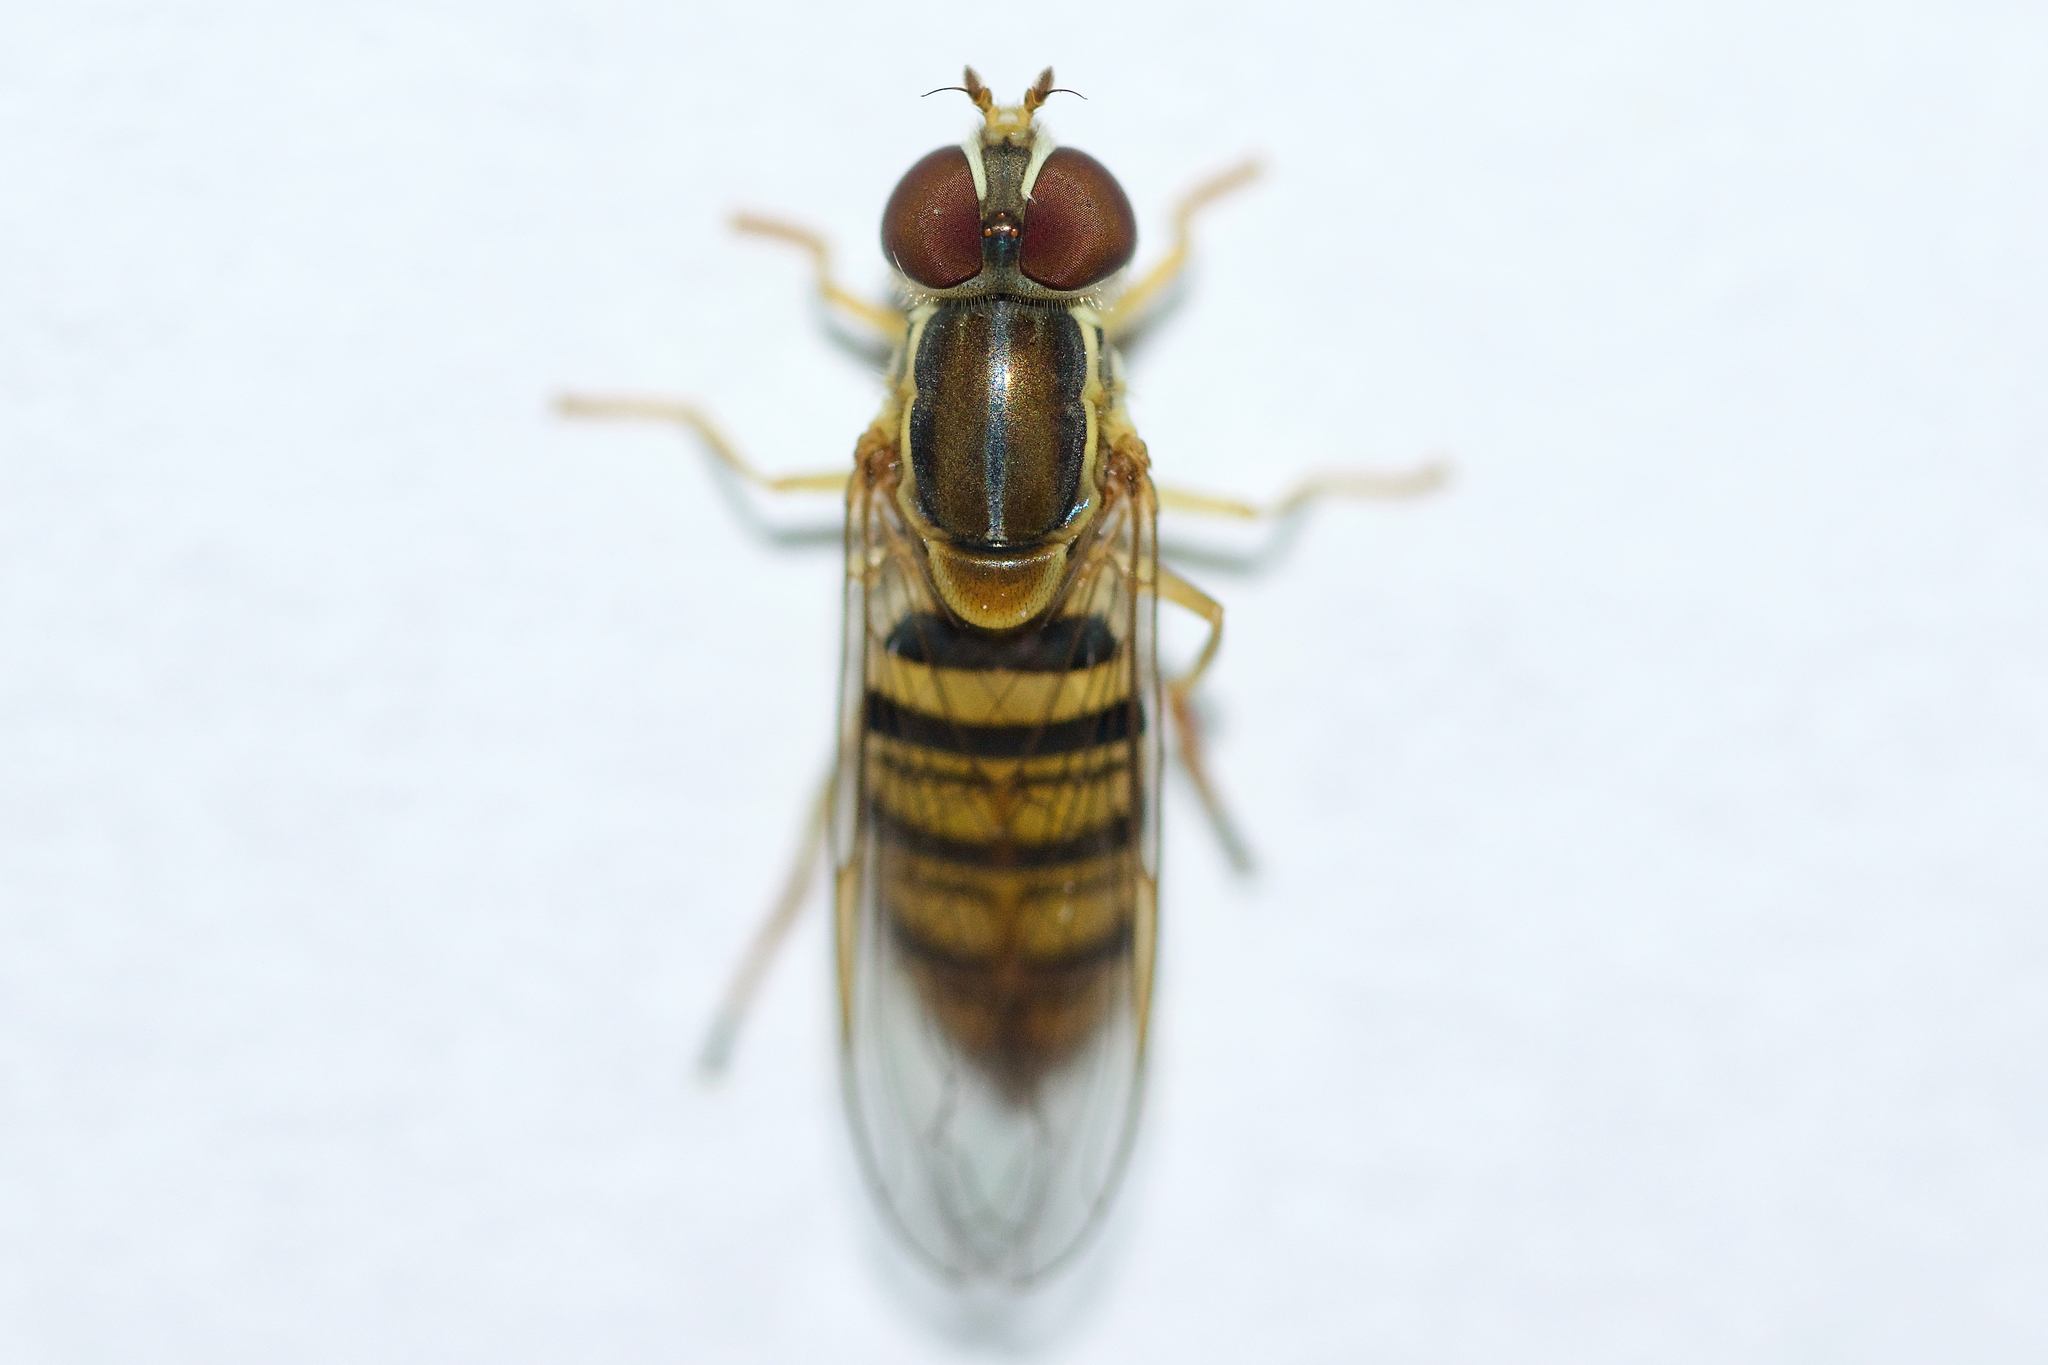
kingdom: Animalia
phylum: Arthropoda
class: Insecta
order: Diptera
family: Syrphidae
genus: Toxomerus
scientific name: Toxomerus politus
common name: Maize calligrapher
